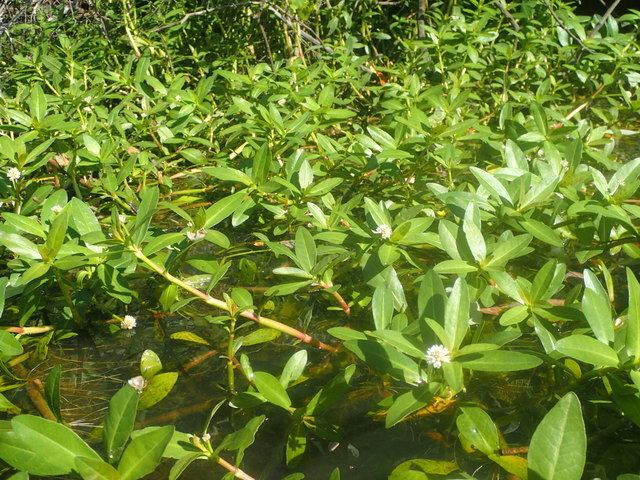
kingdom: Plantae
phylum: Tracheophyta
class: Magnoliopsida
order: Caryophyllales
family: Amaranthaceae
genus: Alternanthera
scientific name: Alternanthera philoxeroides
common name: Alligatorweed
